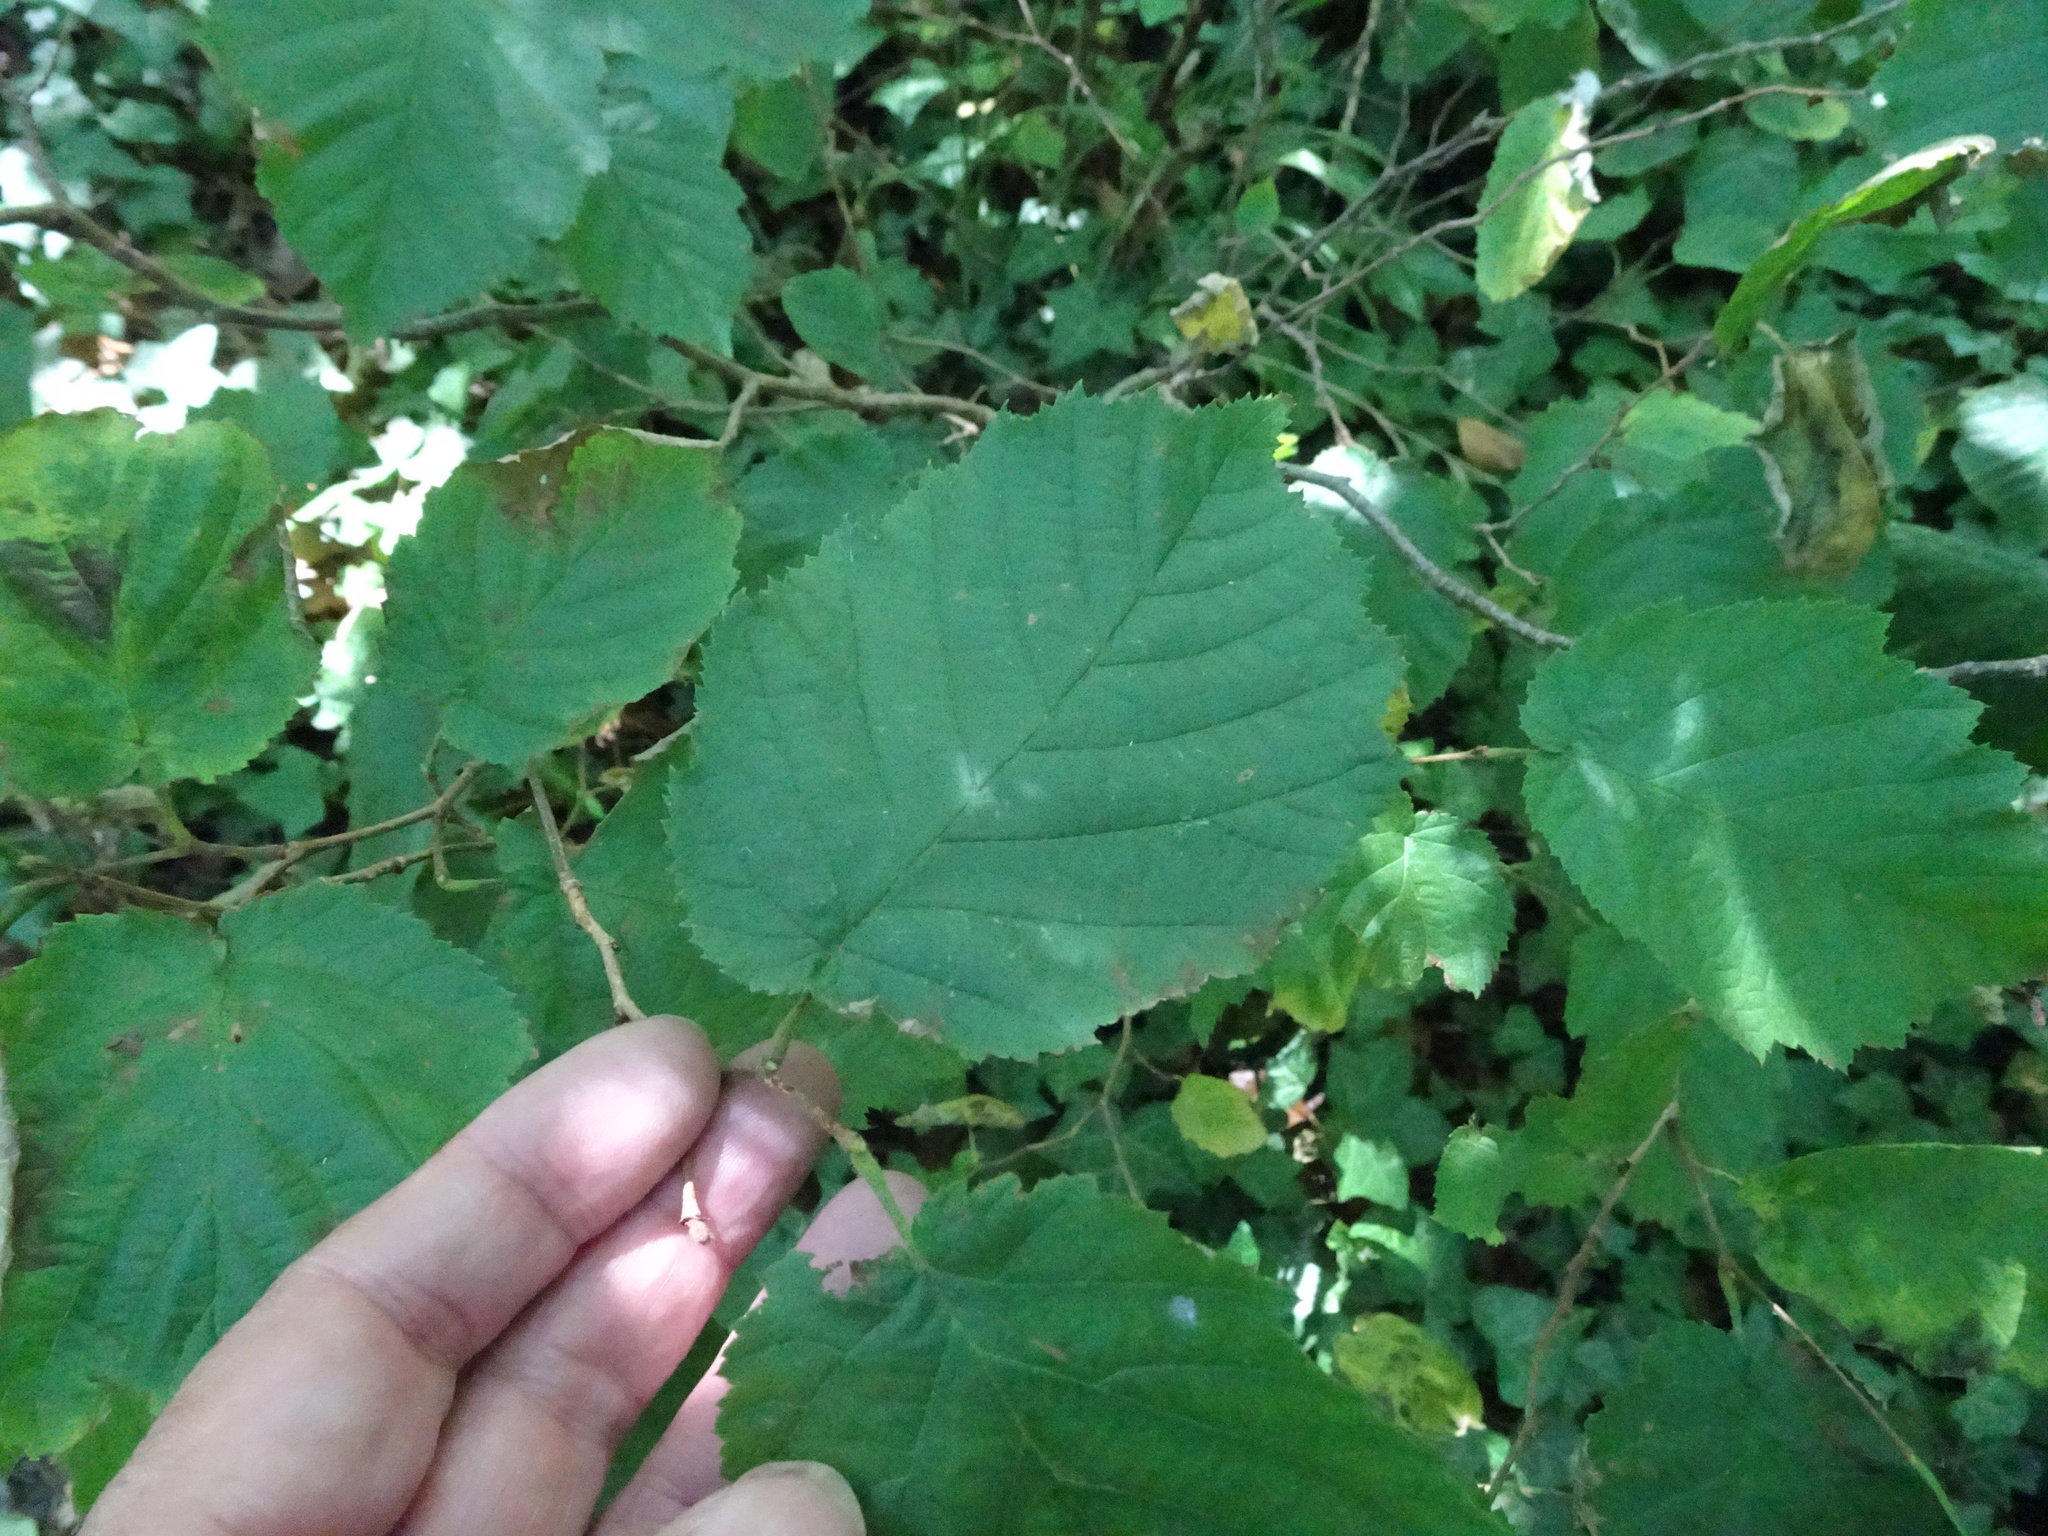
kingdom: Plantae
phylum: Tracheophyta
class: Magnoliopsida
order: Fagales
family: Betulaceae
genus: Corylus
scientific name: Corylus avellana
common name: European hazel
